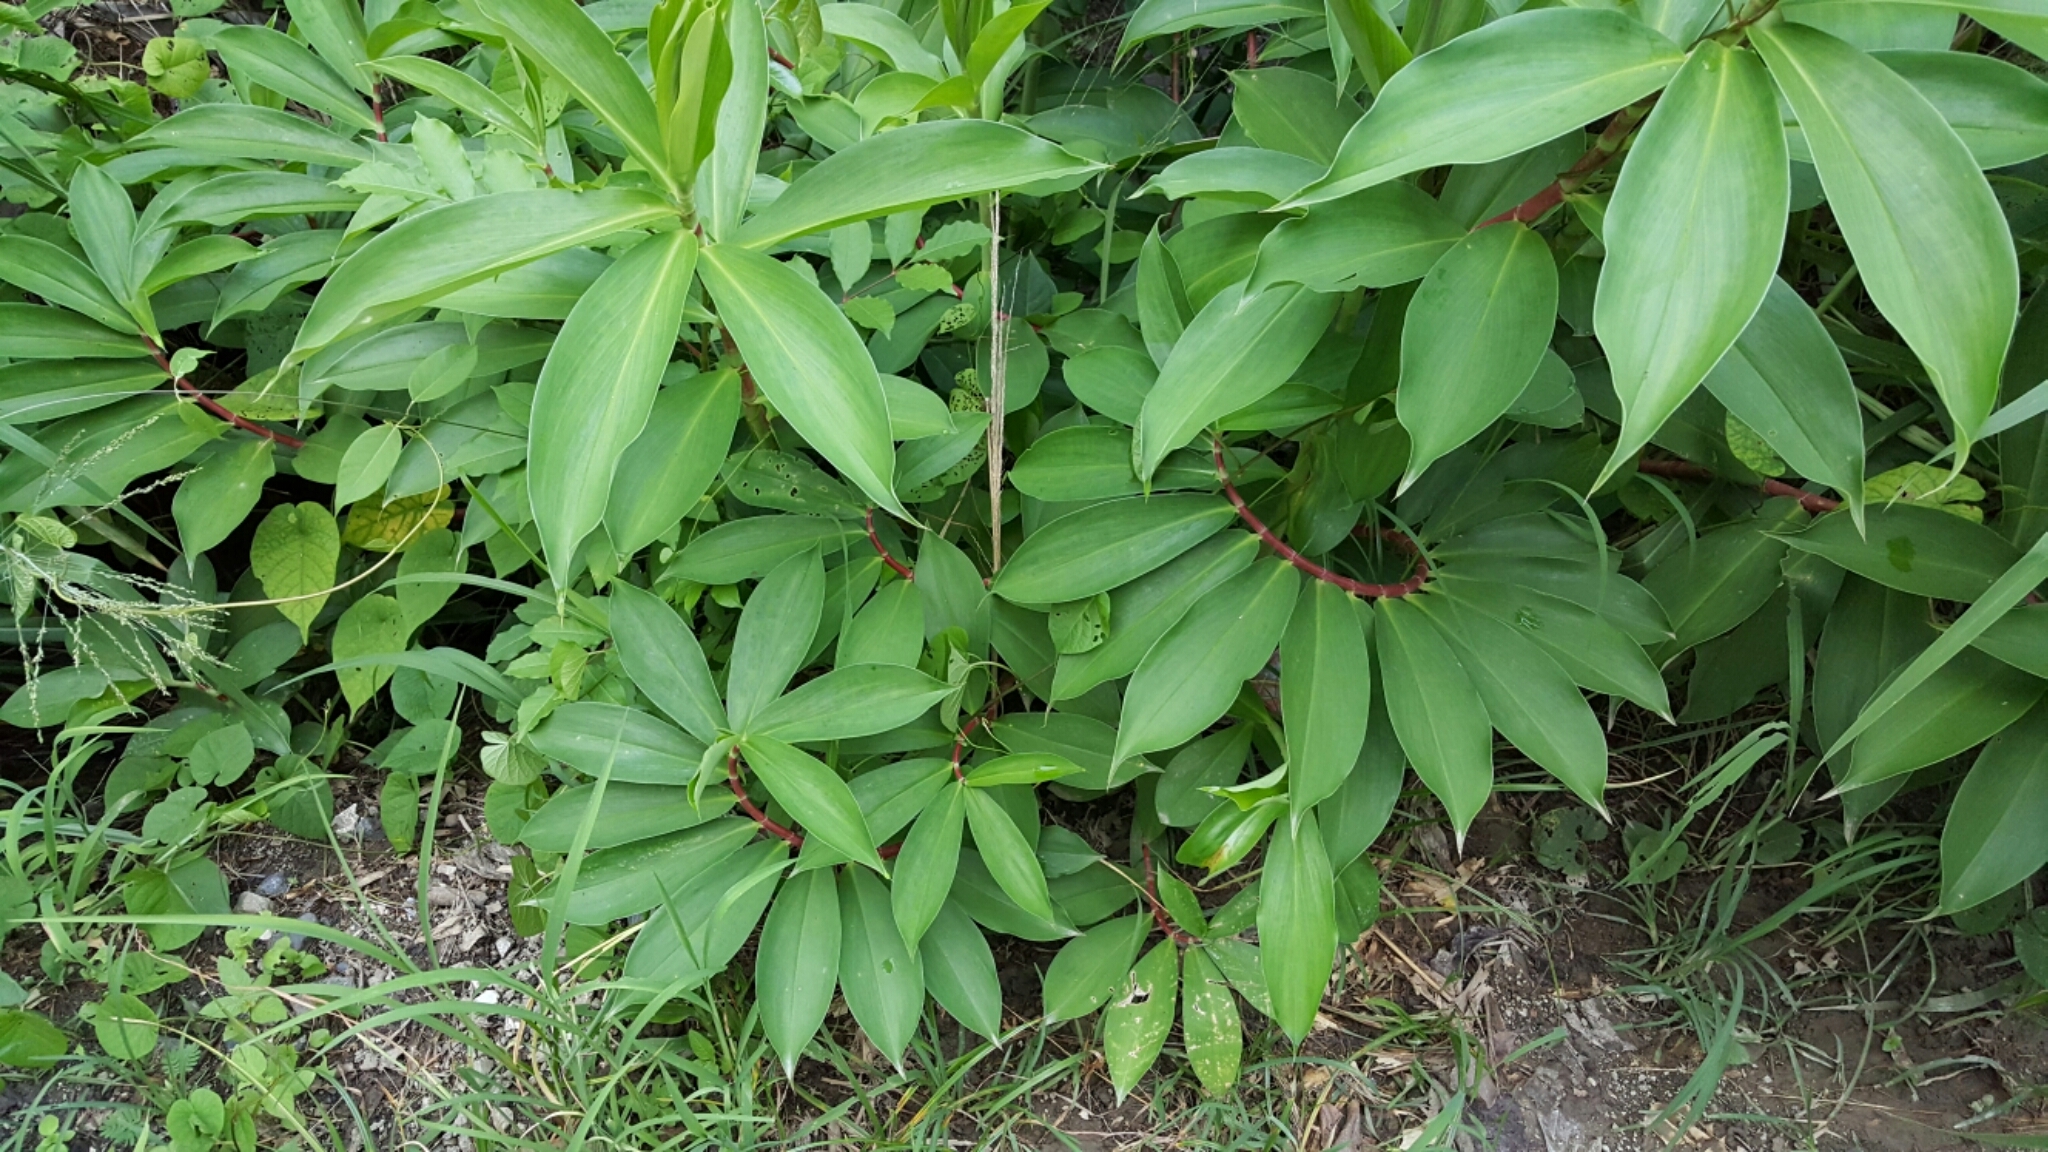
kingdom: Plantae
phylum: Tracheophyta
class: Liliopsida
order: Zingiberales
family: Costaceae
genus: Hellenia
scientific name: Hellenia speciosa
